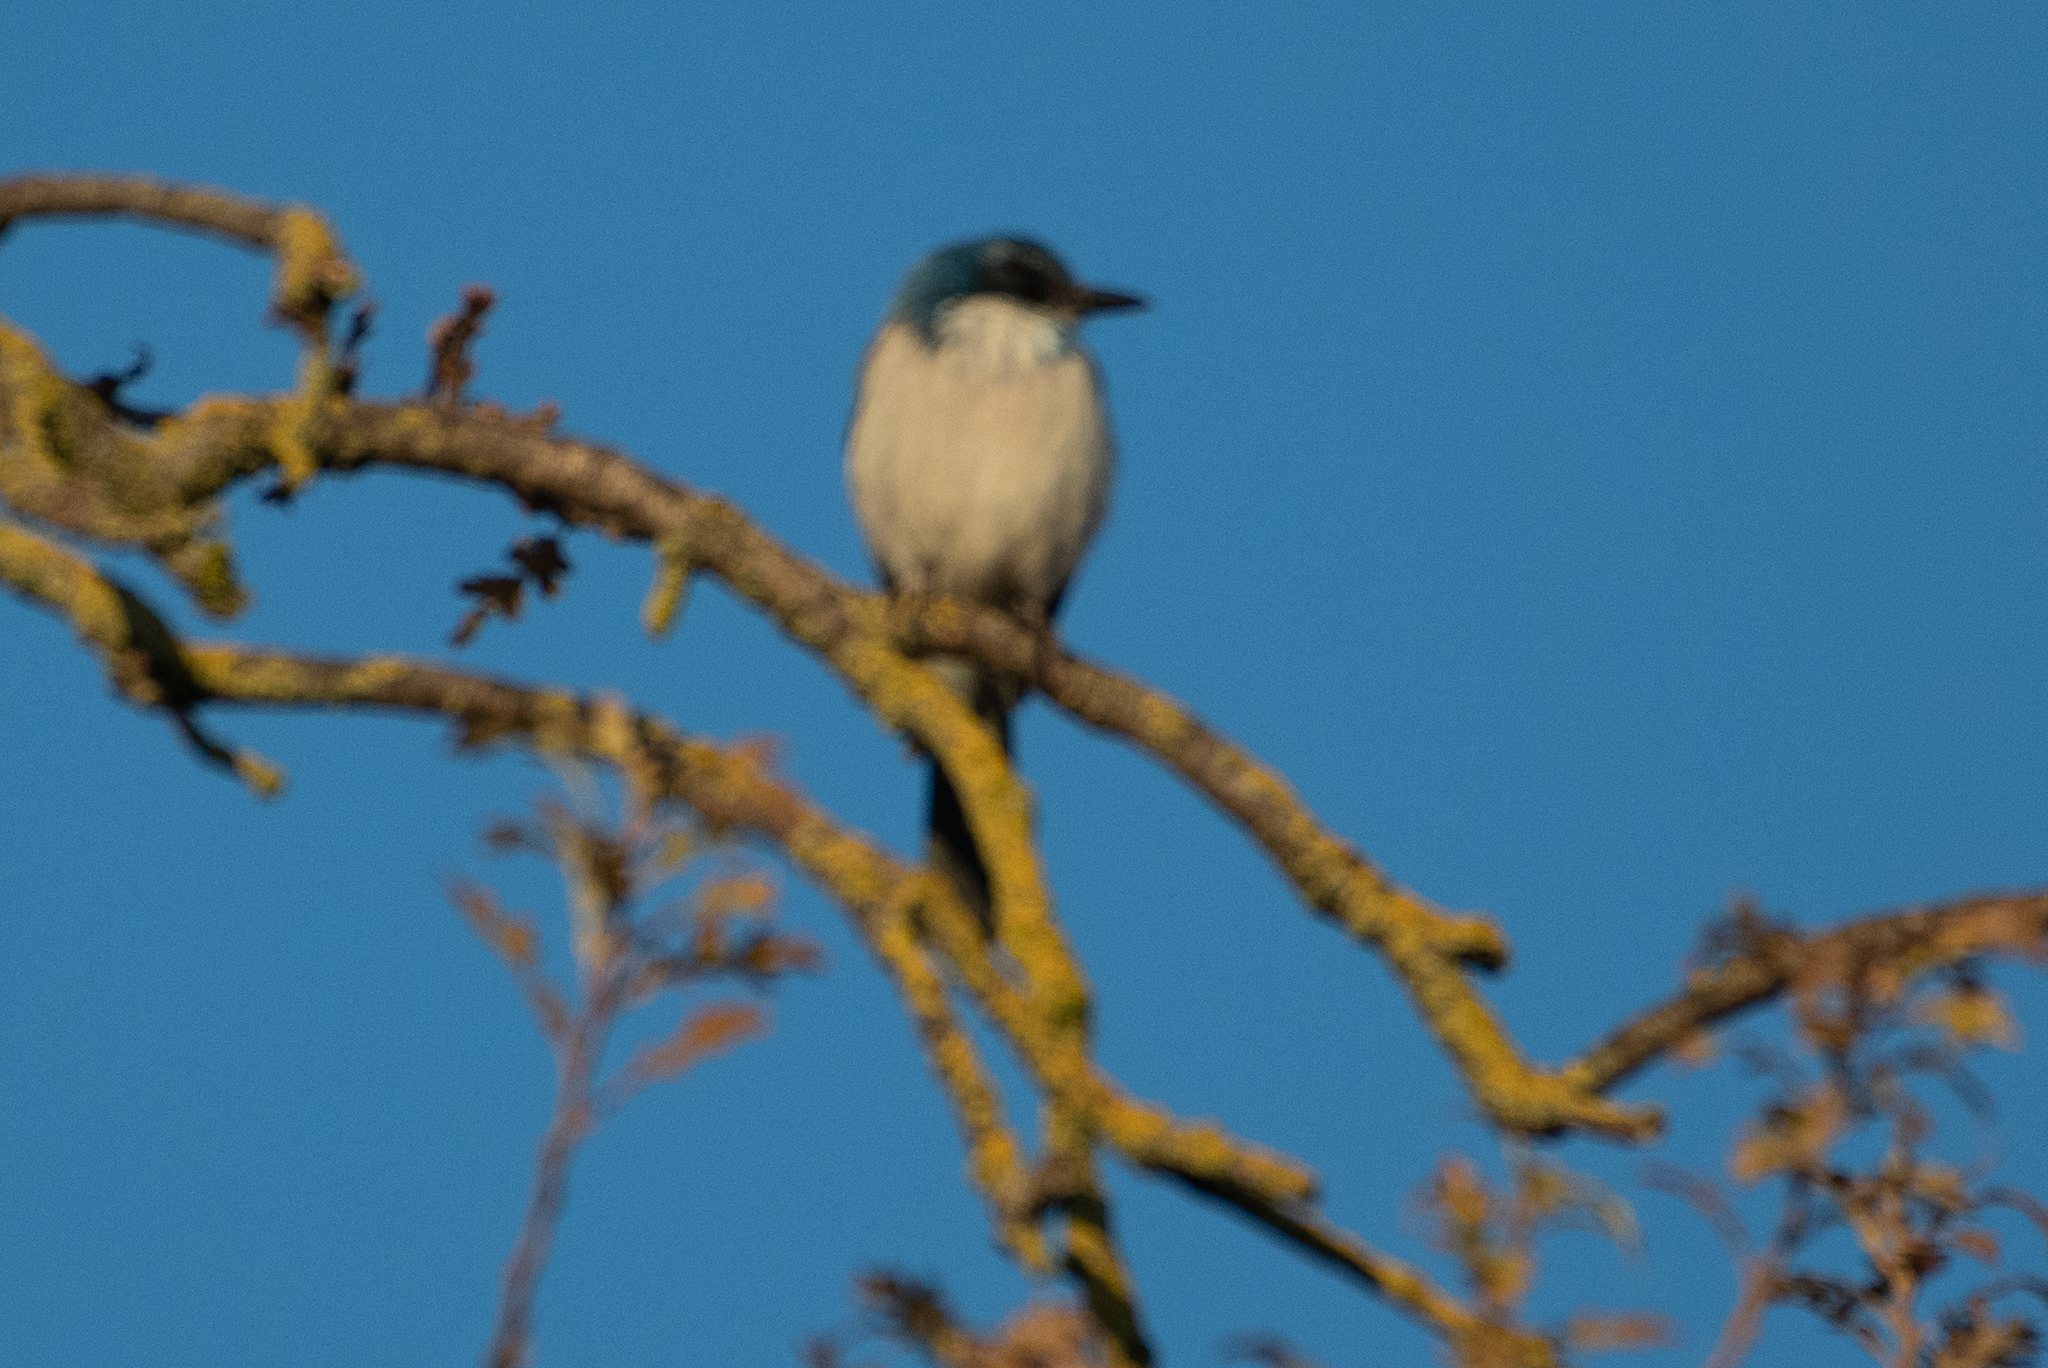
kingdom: Animalia
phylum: Chordata
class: Aves
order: Passeriformes
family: Corvidae
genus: Aphelocoma
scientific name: Aphelocoma californica
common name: California scrub-jay
